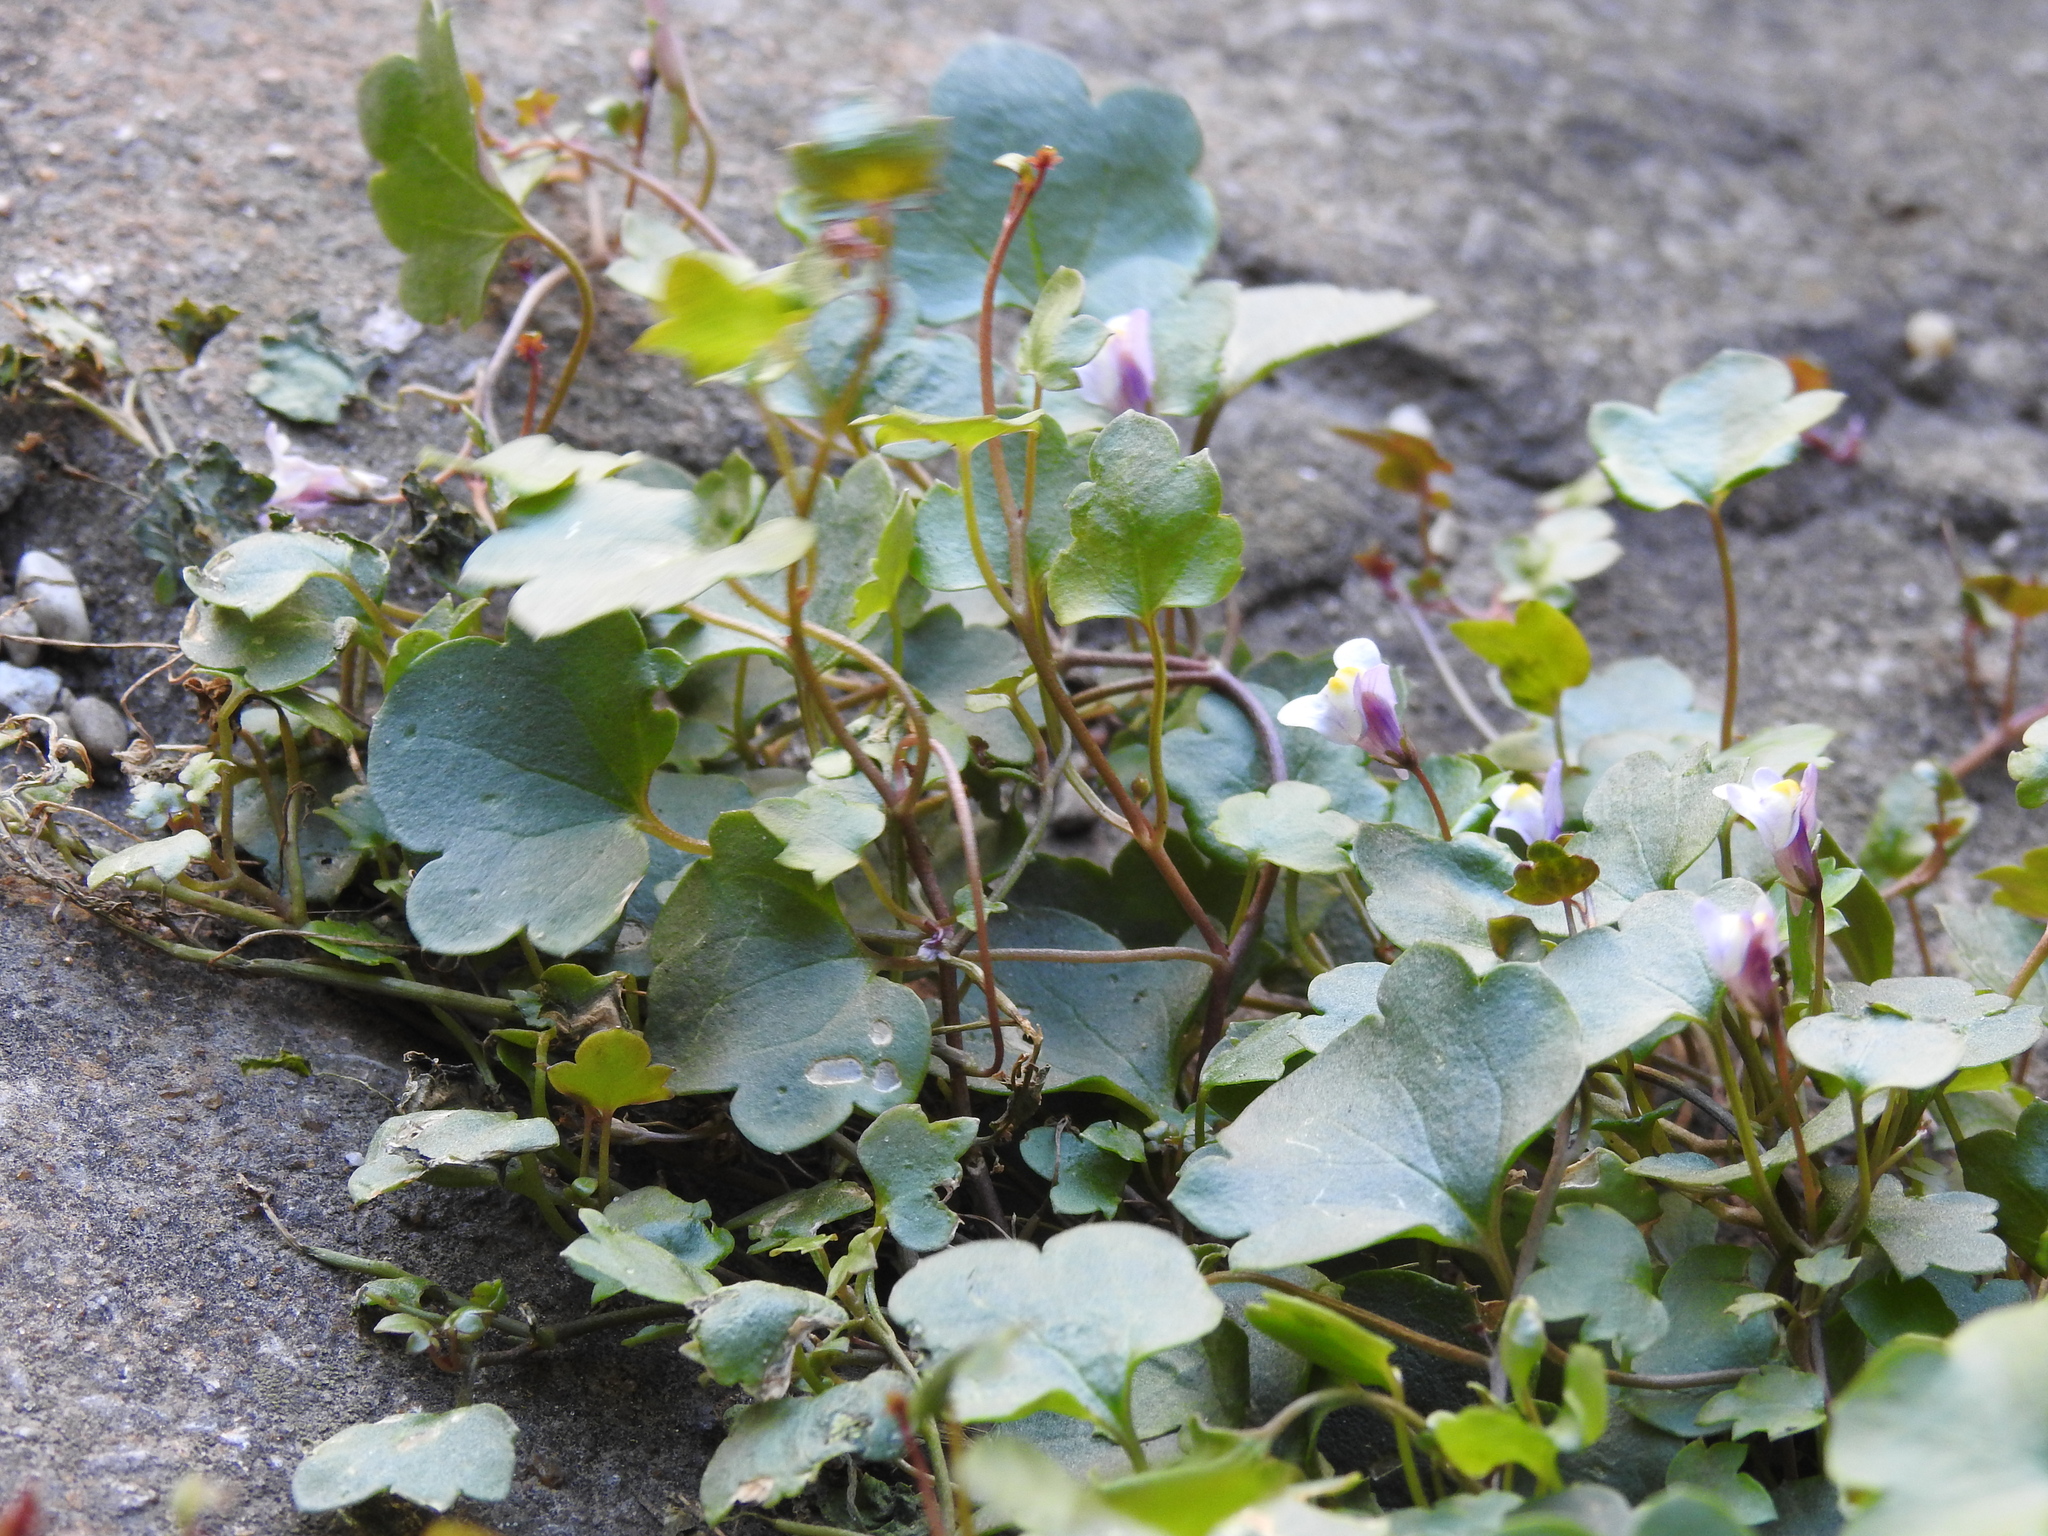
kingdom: Plantae
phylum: Tracheophyta
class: Magnoliopsida
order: Lamiales
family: Plantaginaceae
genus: Cymbalaria
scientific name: Cymbalaria muralis
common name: Ivy-leaved toadflax
